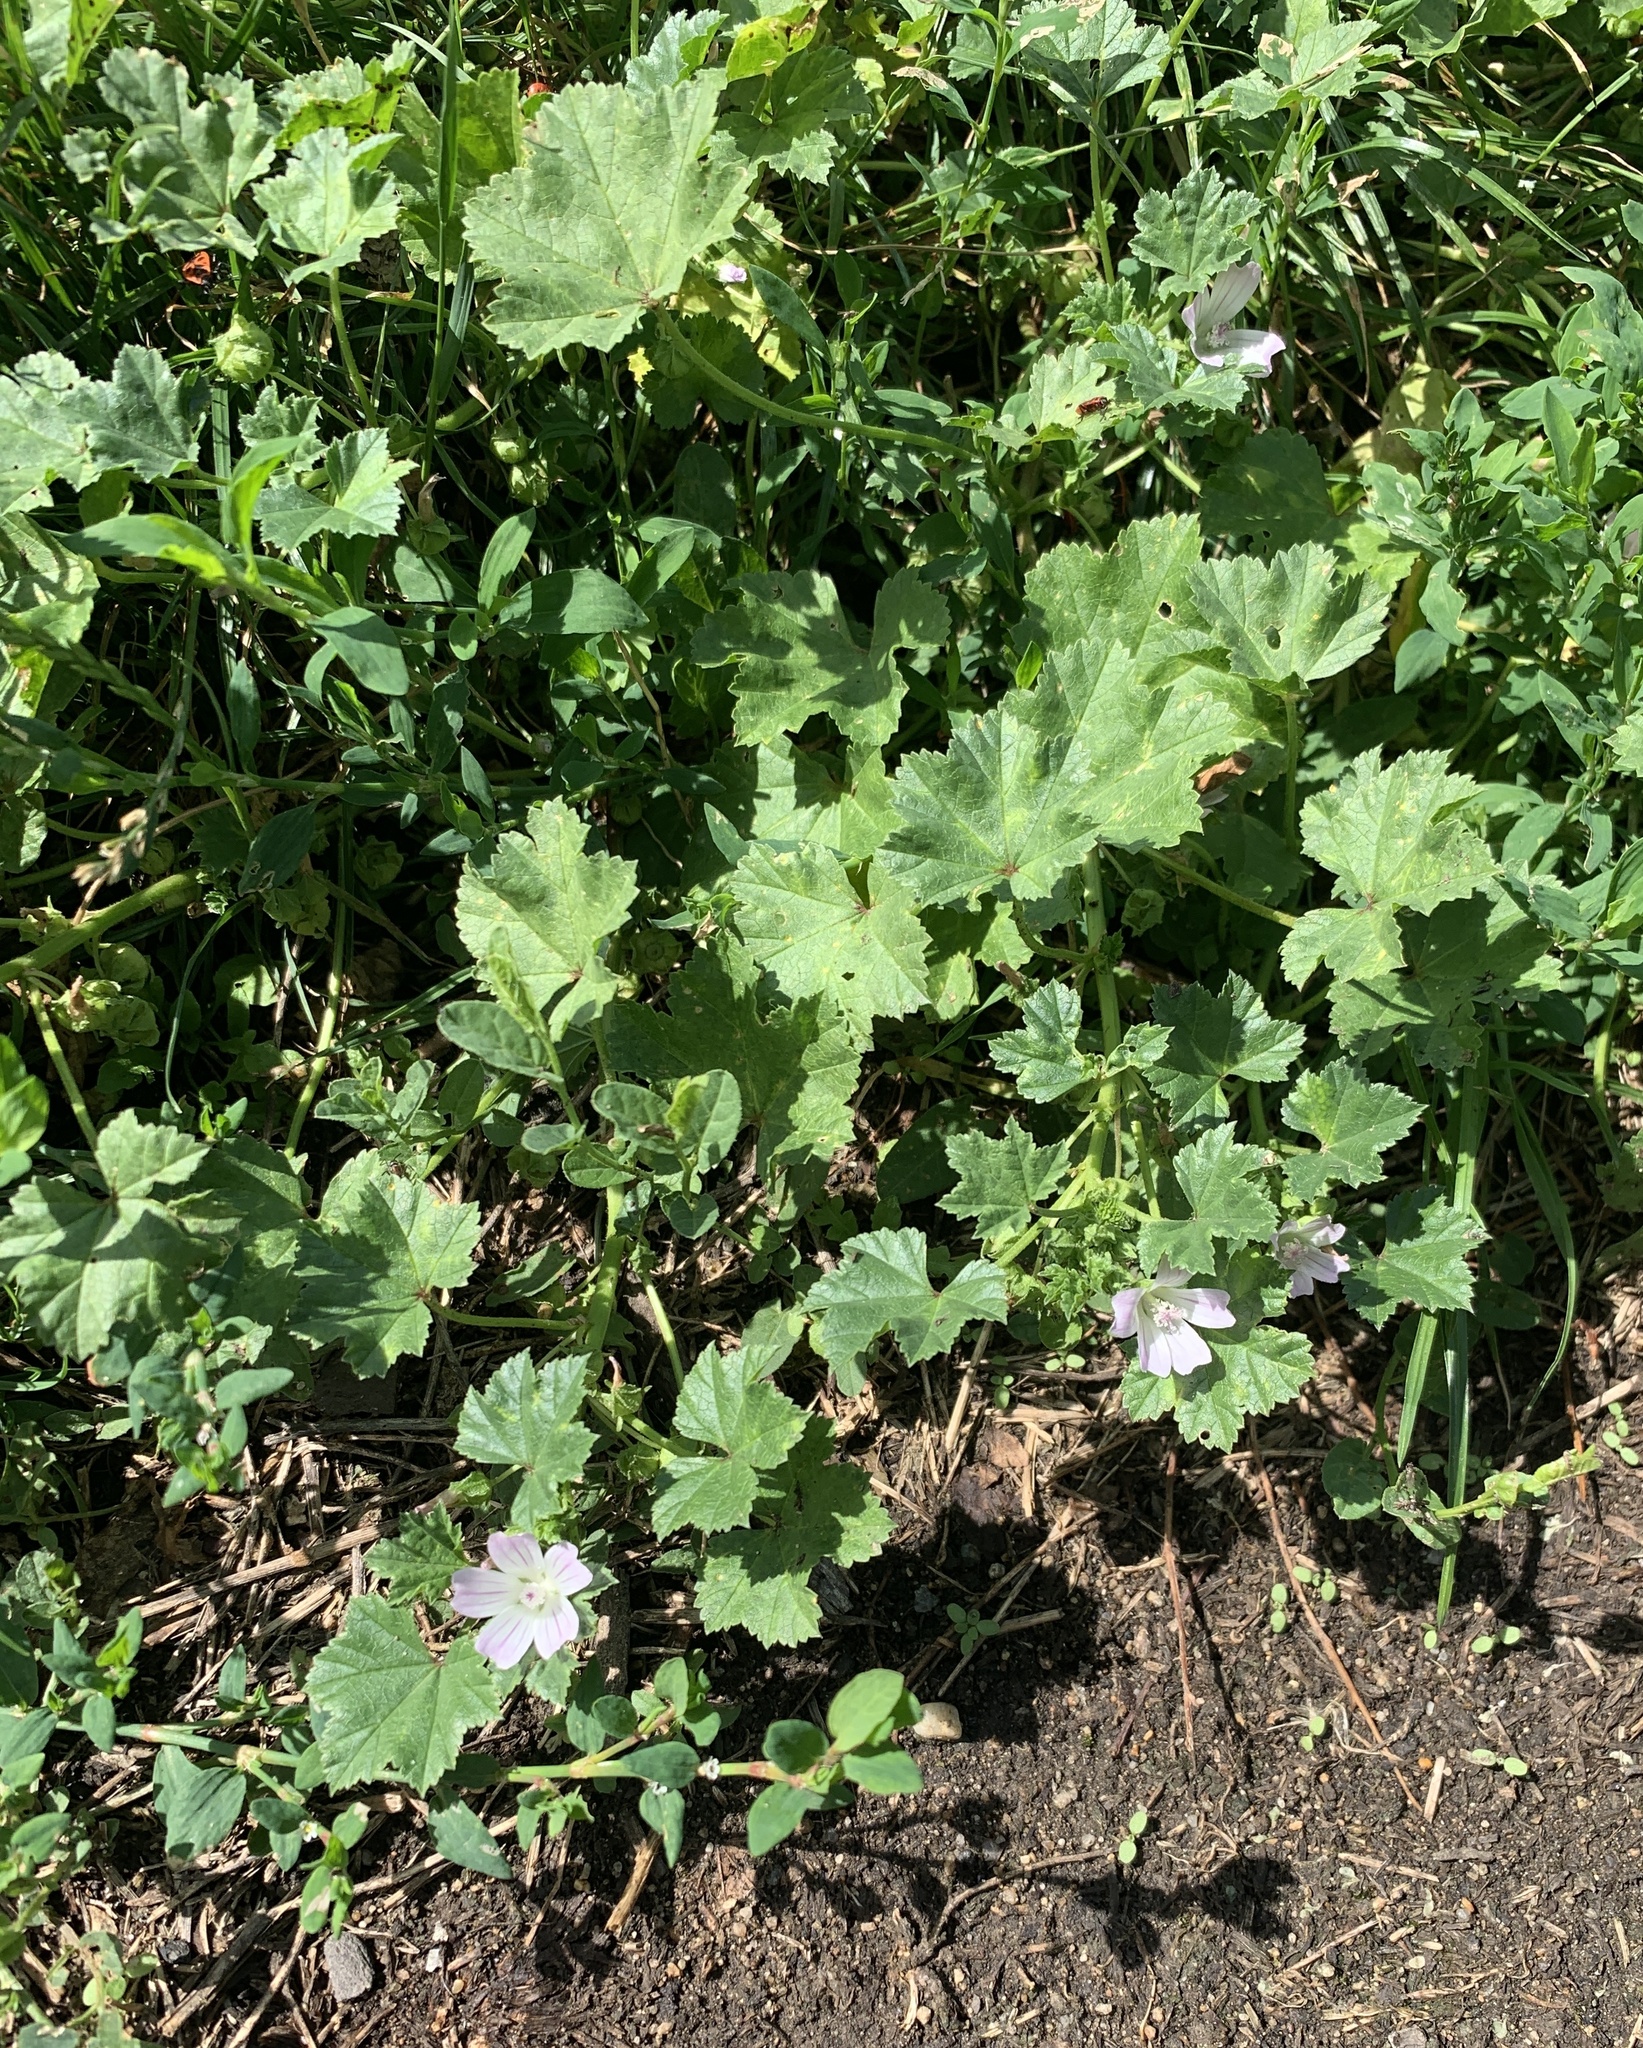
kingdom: Plantae
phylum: Tracheophyta
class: Magnoliopsida
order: Malvales
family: Malvaceae
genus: Malva
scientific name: Malva neglecta
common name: Common mallow
